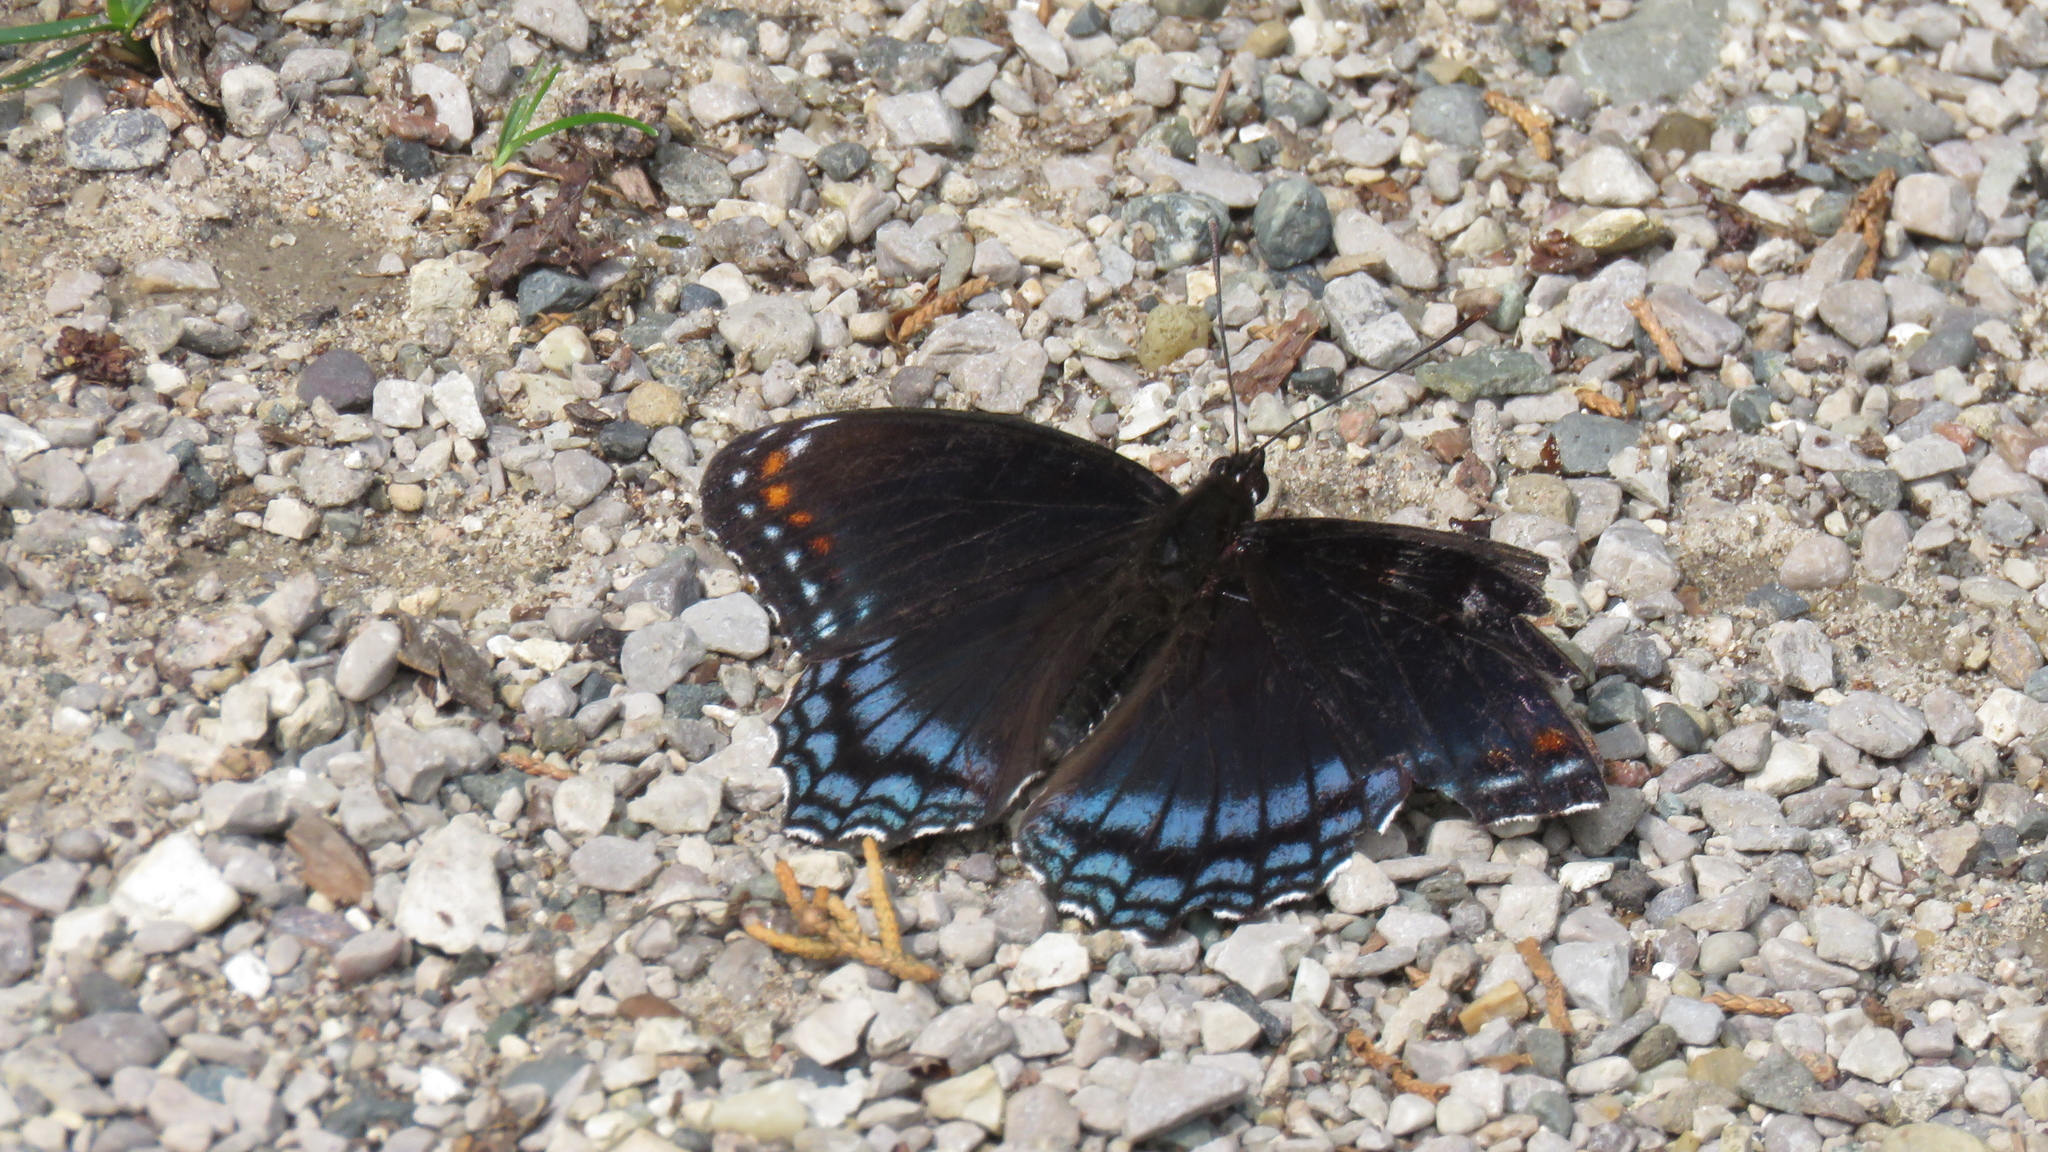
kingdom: Animalia
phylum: Arthropoda
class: Insecta
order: Lepidoptera
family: Nymphalidae
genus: Limenitis
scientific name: Limenitis astyanax
